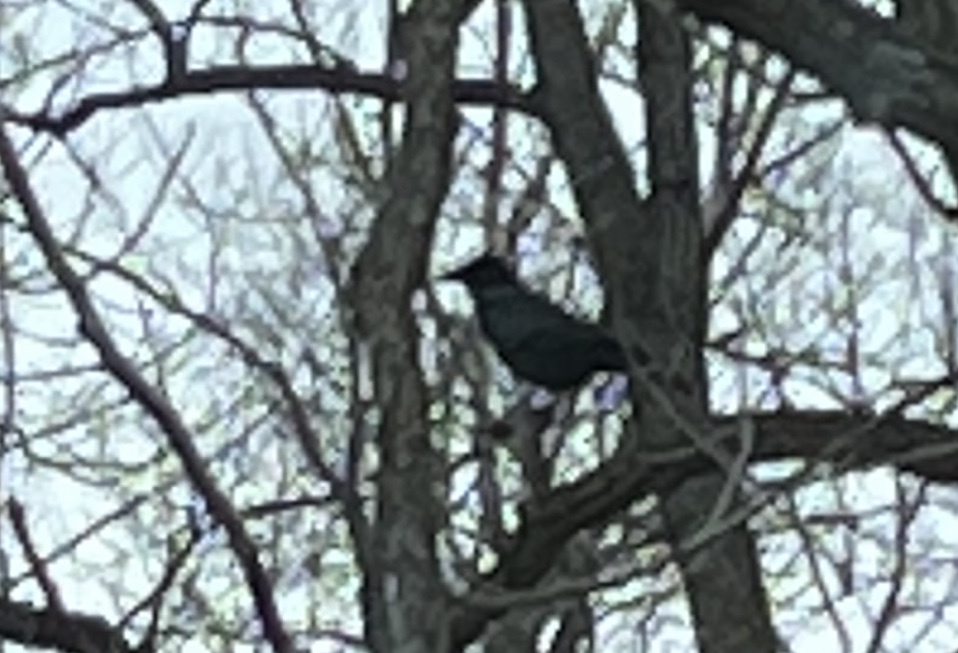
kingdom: Animalia
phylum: Chordata
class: Aves
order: Passeriformes
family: Corvidae
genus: Corvus
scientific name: Corvus brachyrhynchos
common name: American crow
